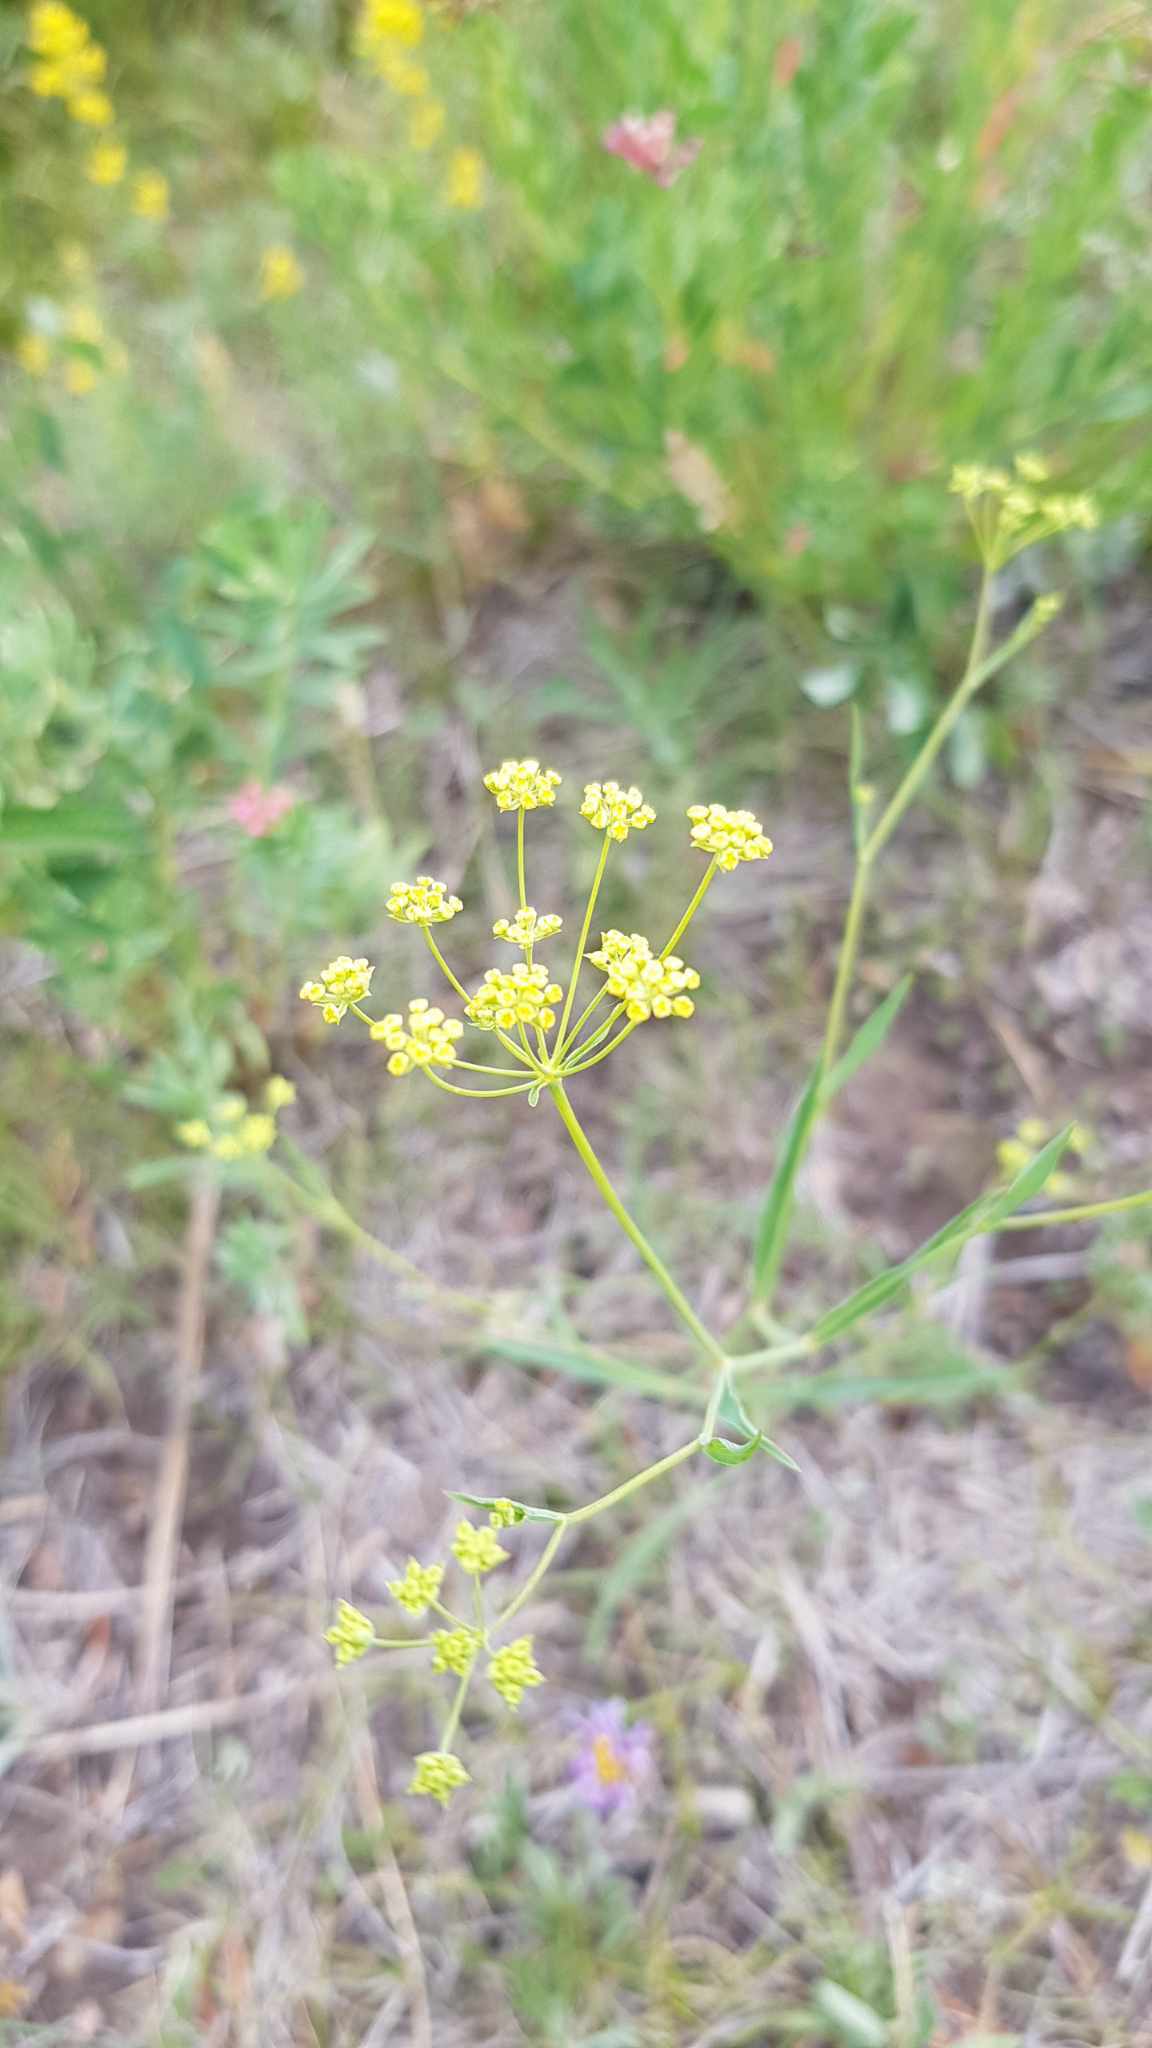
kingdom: Plantae
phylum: Tracheophyta
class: Magnoliopsida
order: Apiales
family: Apiaceae
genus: Bupleurum
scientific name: Bupleurum scorzonerifolium
